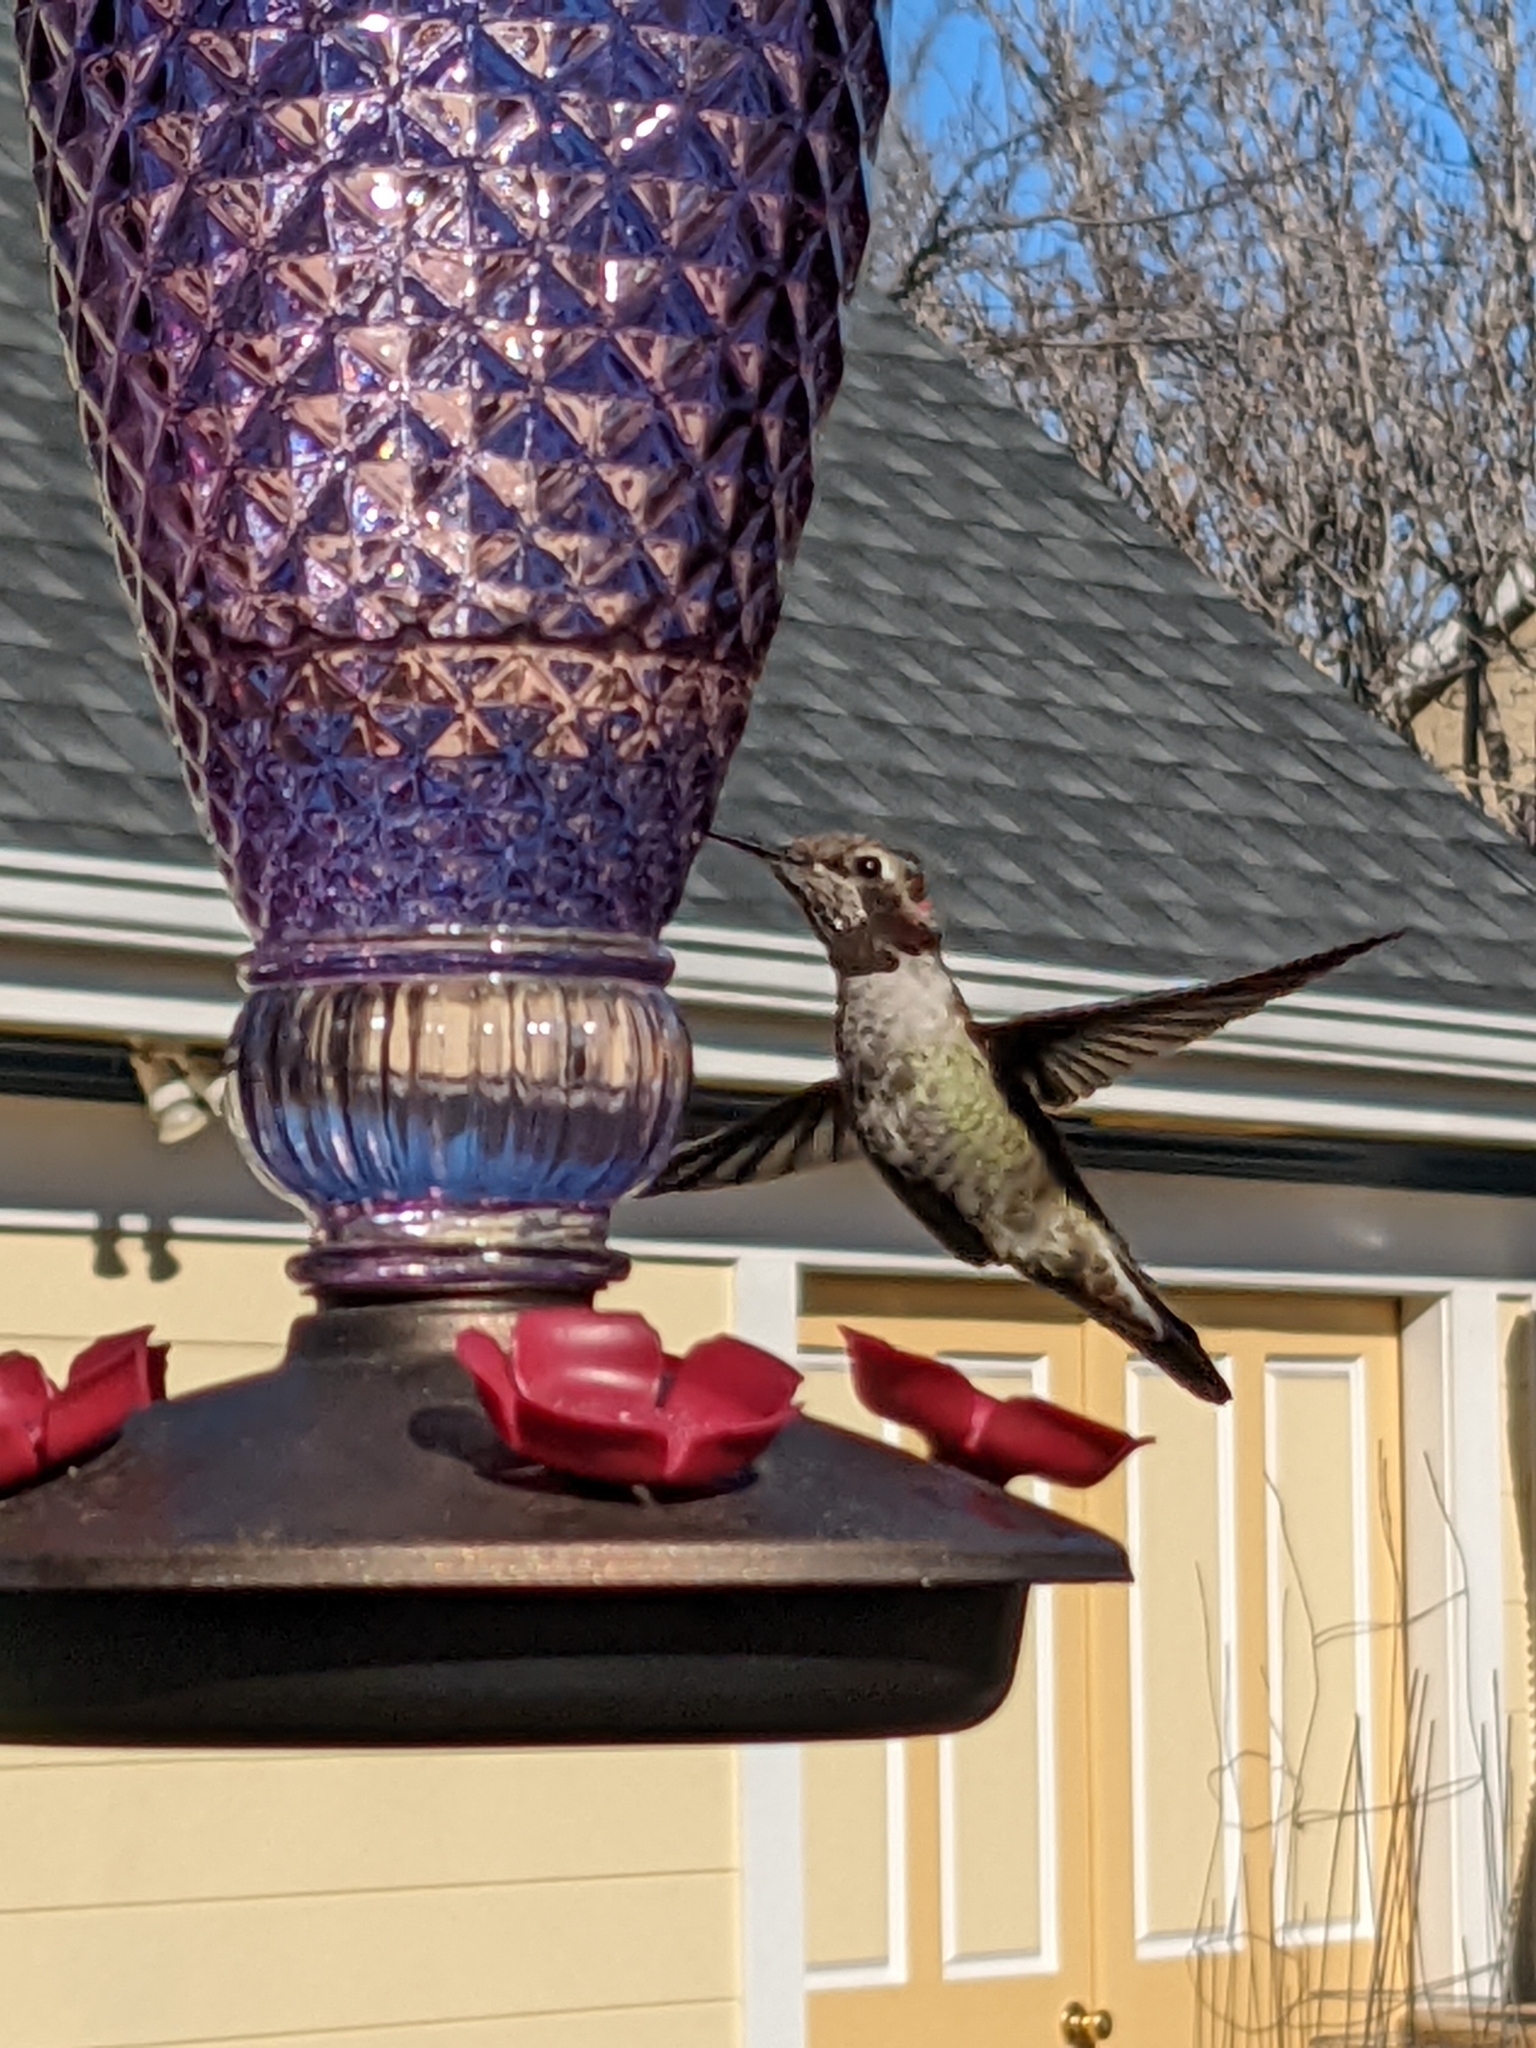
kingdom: Animalia
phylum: Chordata
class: Aves
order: Apodiformes
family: Trochilidae
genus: Calypte
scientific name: Calypte anna
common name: Anna's hummingbird
